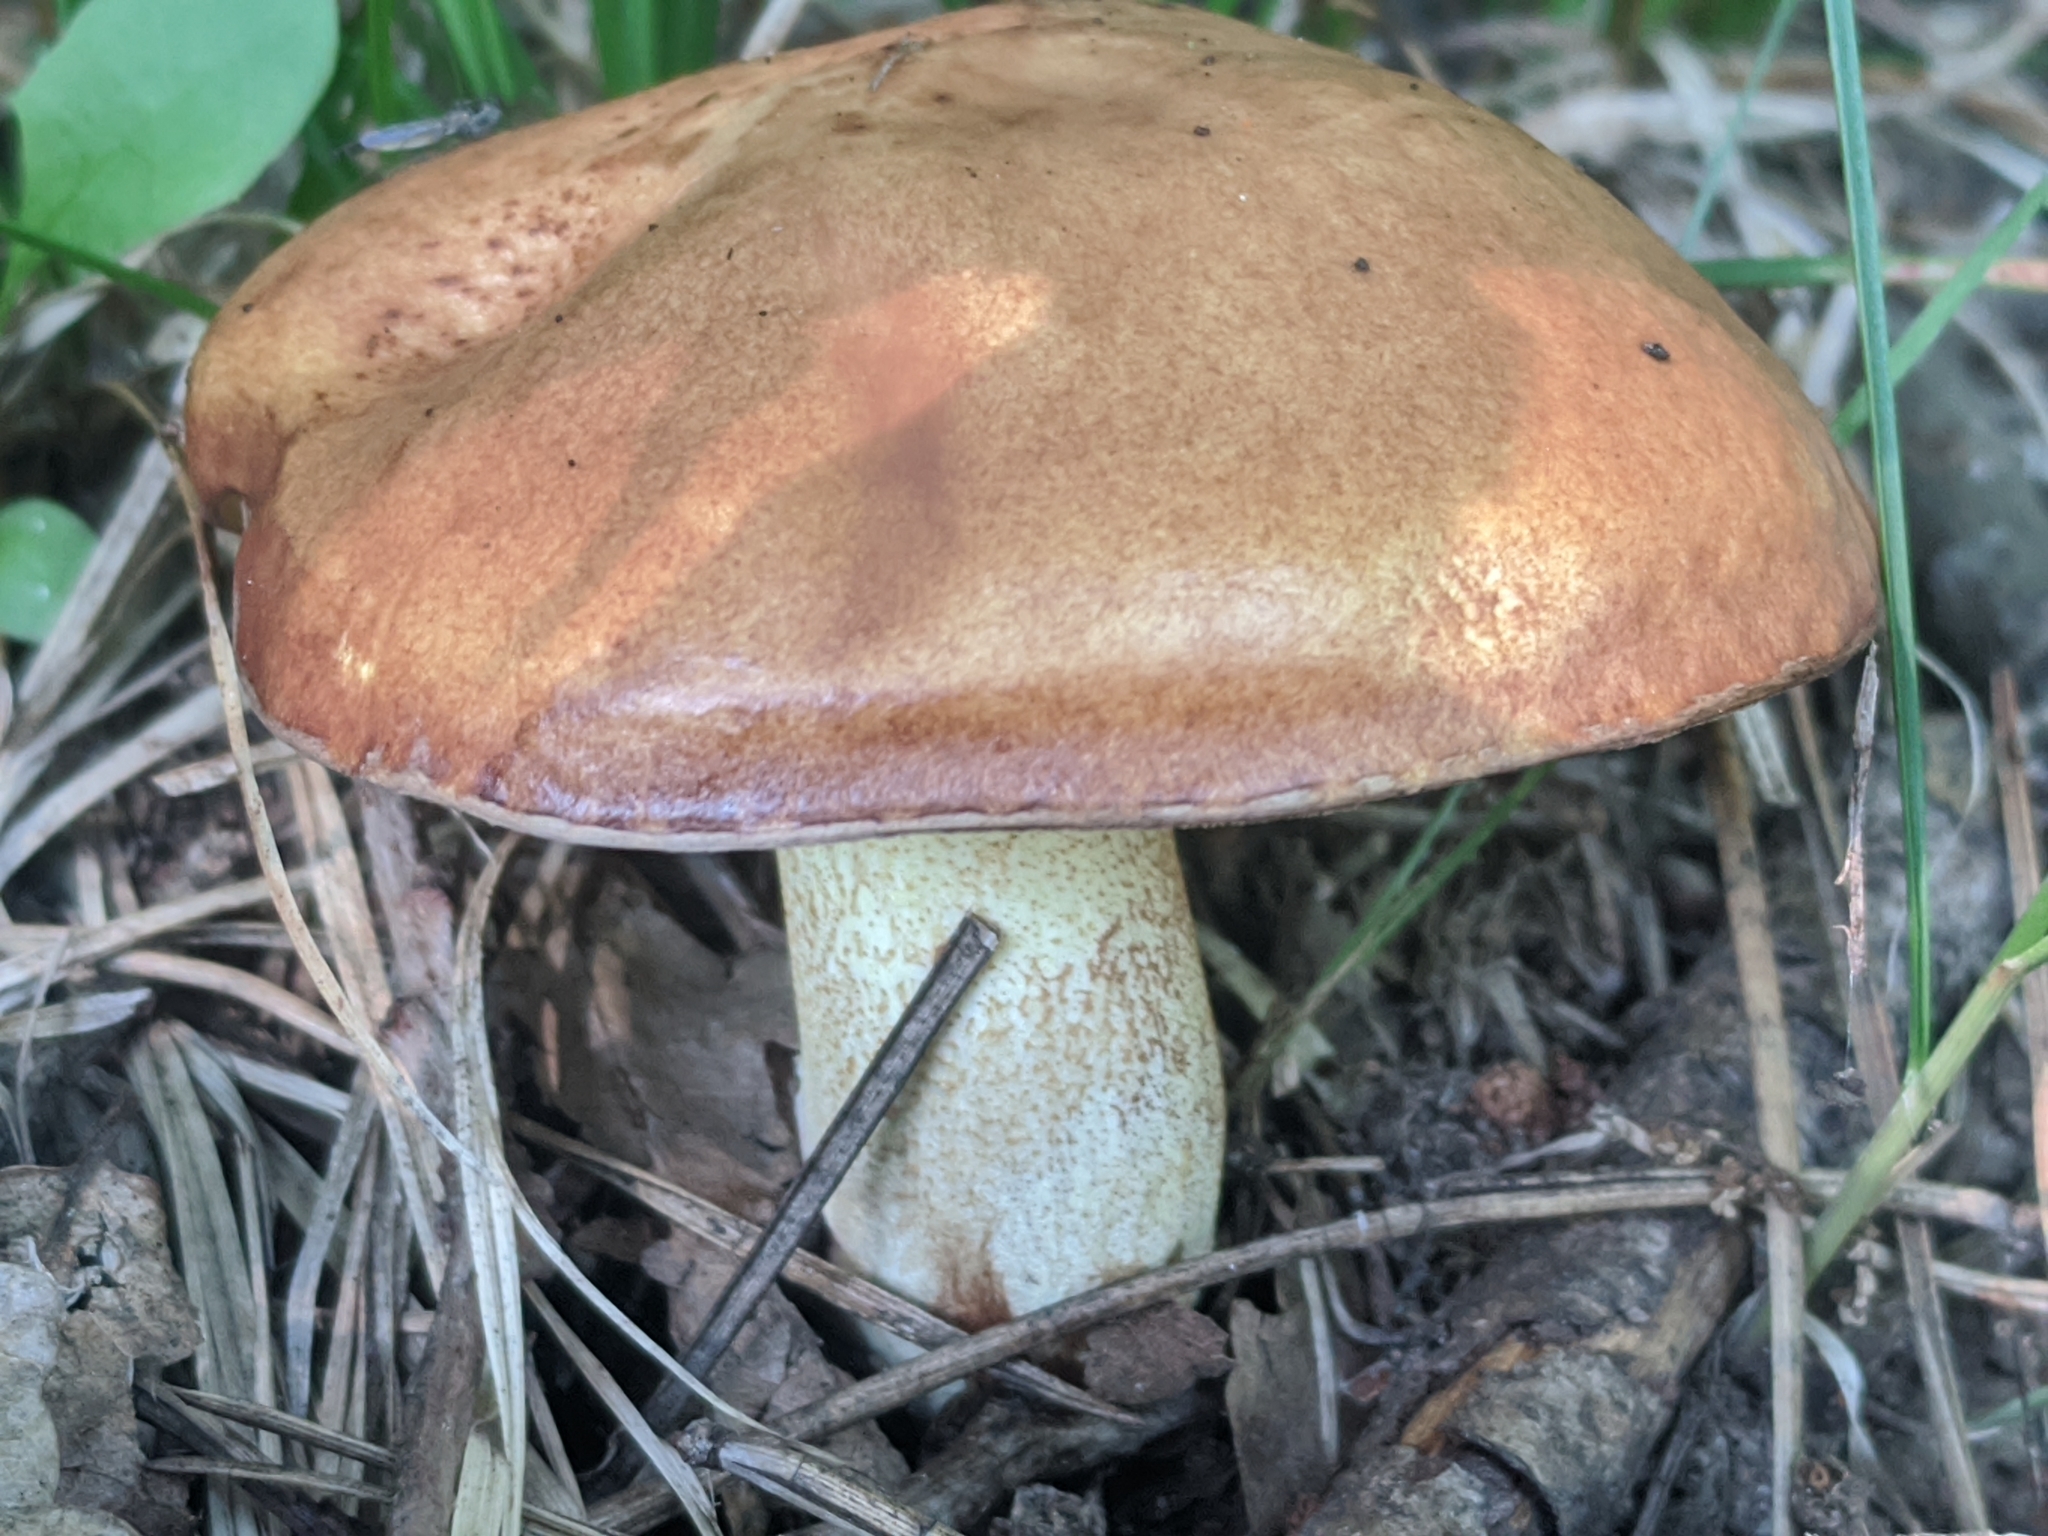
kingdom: Fungi
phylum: Basidiomycota
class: Agaricomycetes
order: Boletales
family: Suillaceae
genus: Suillus
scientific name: Suillus granulatus
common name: Weeping bolete
